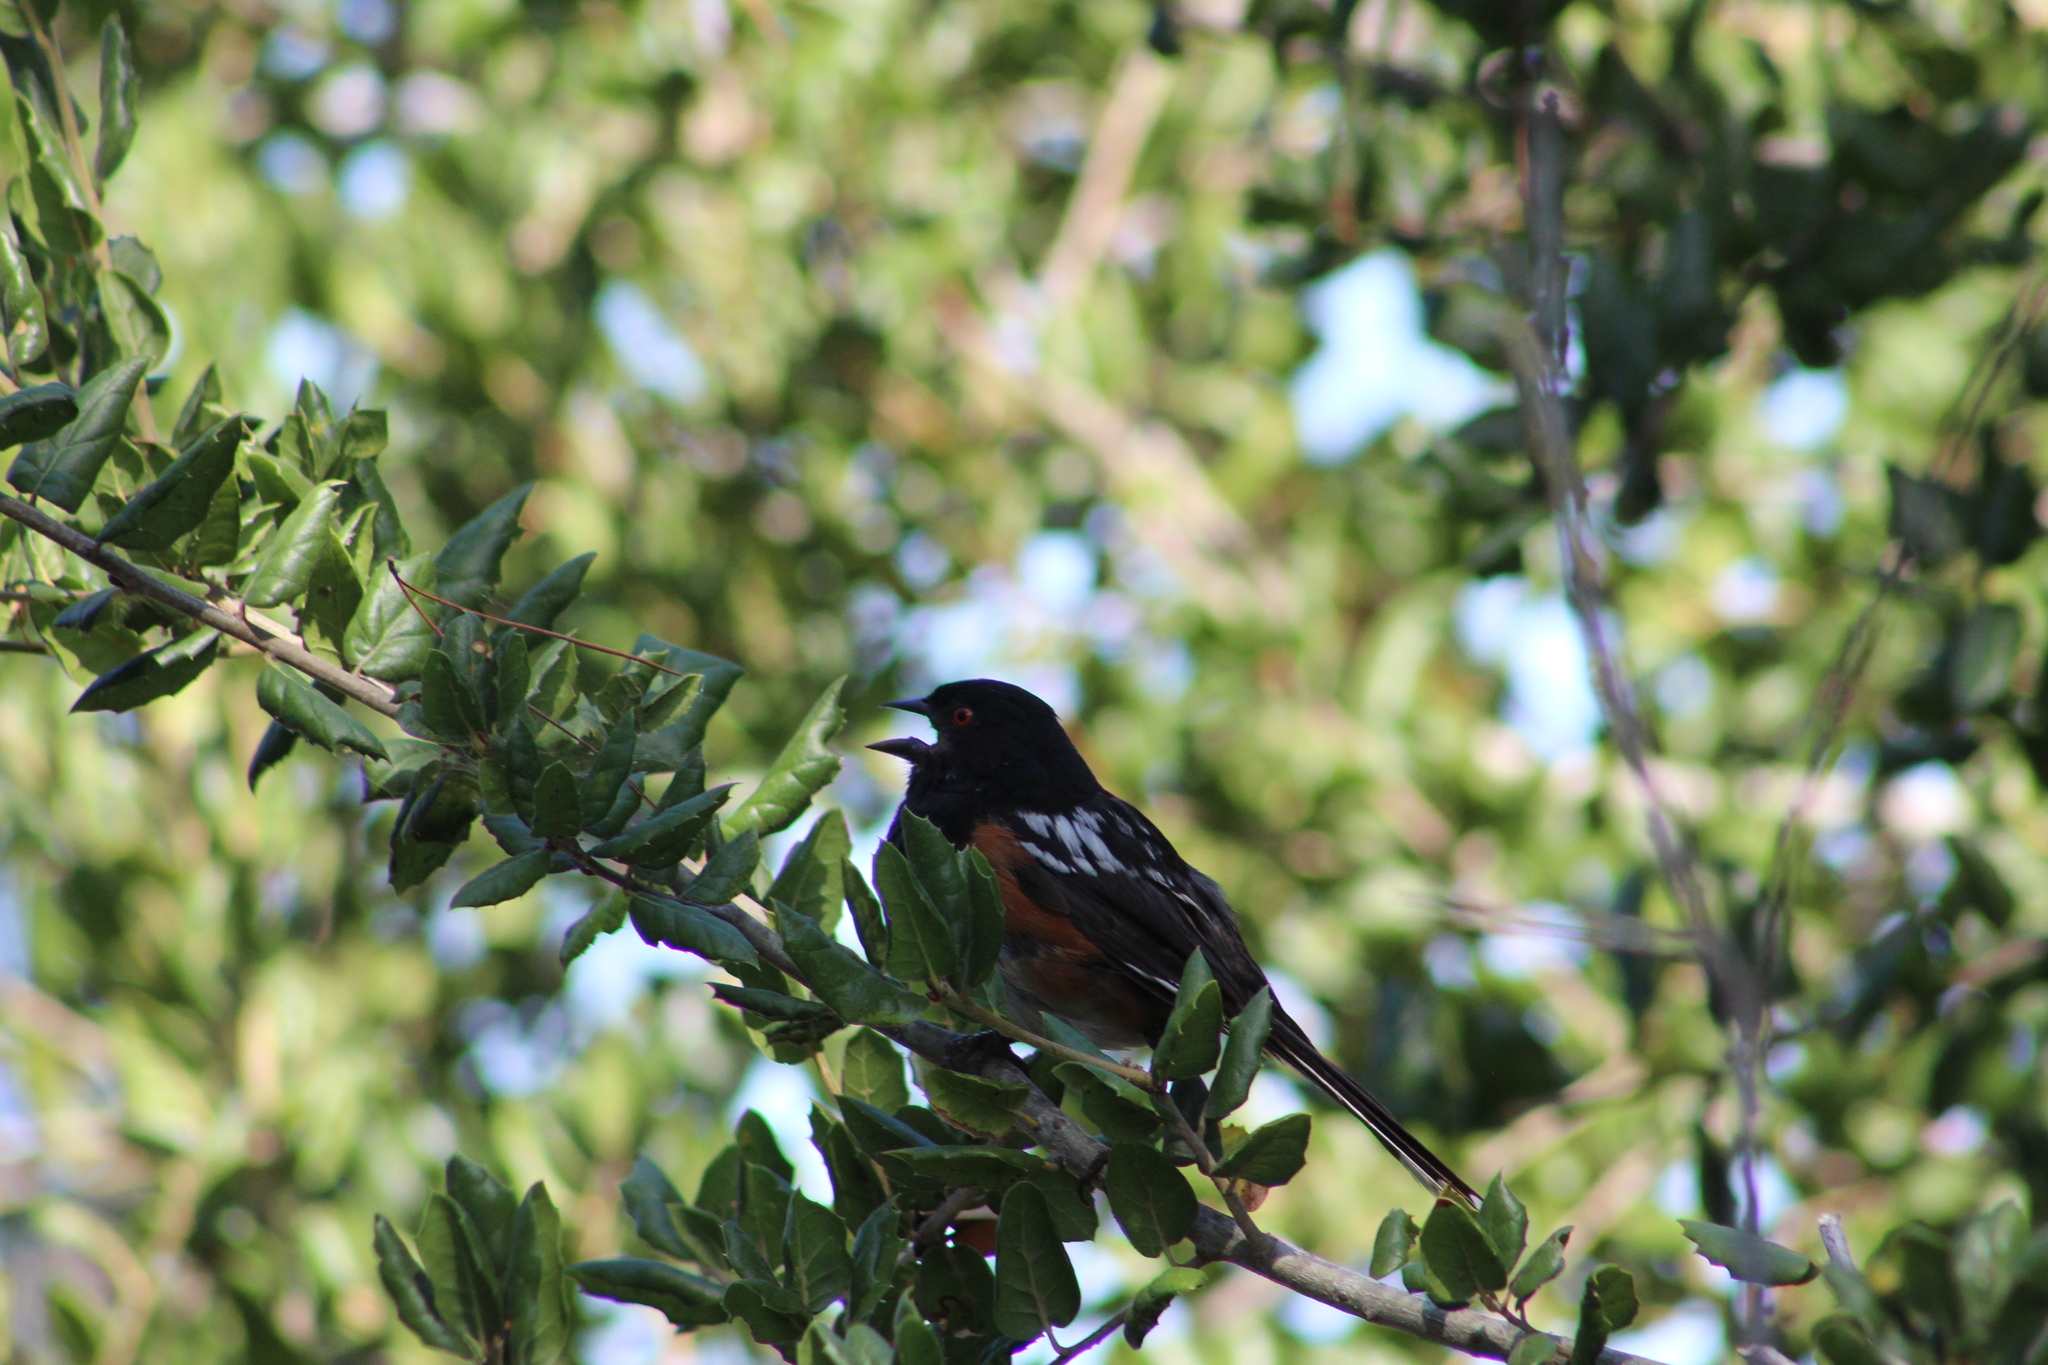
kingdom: Animalia
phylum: Chordata
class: Aves
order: Passeriformes
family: Passerellidae
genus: Pipilo
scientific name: Pipilo maculatus
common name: Spotted towhee
